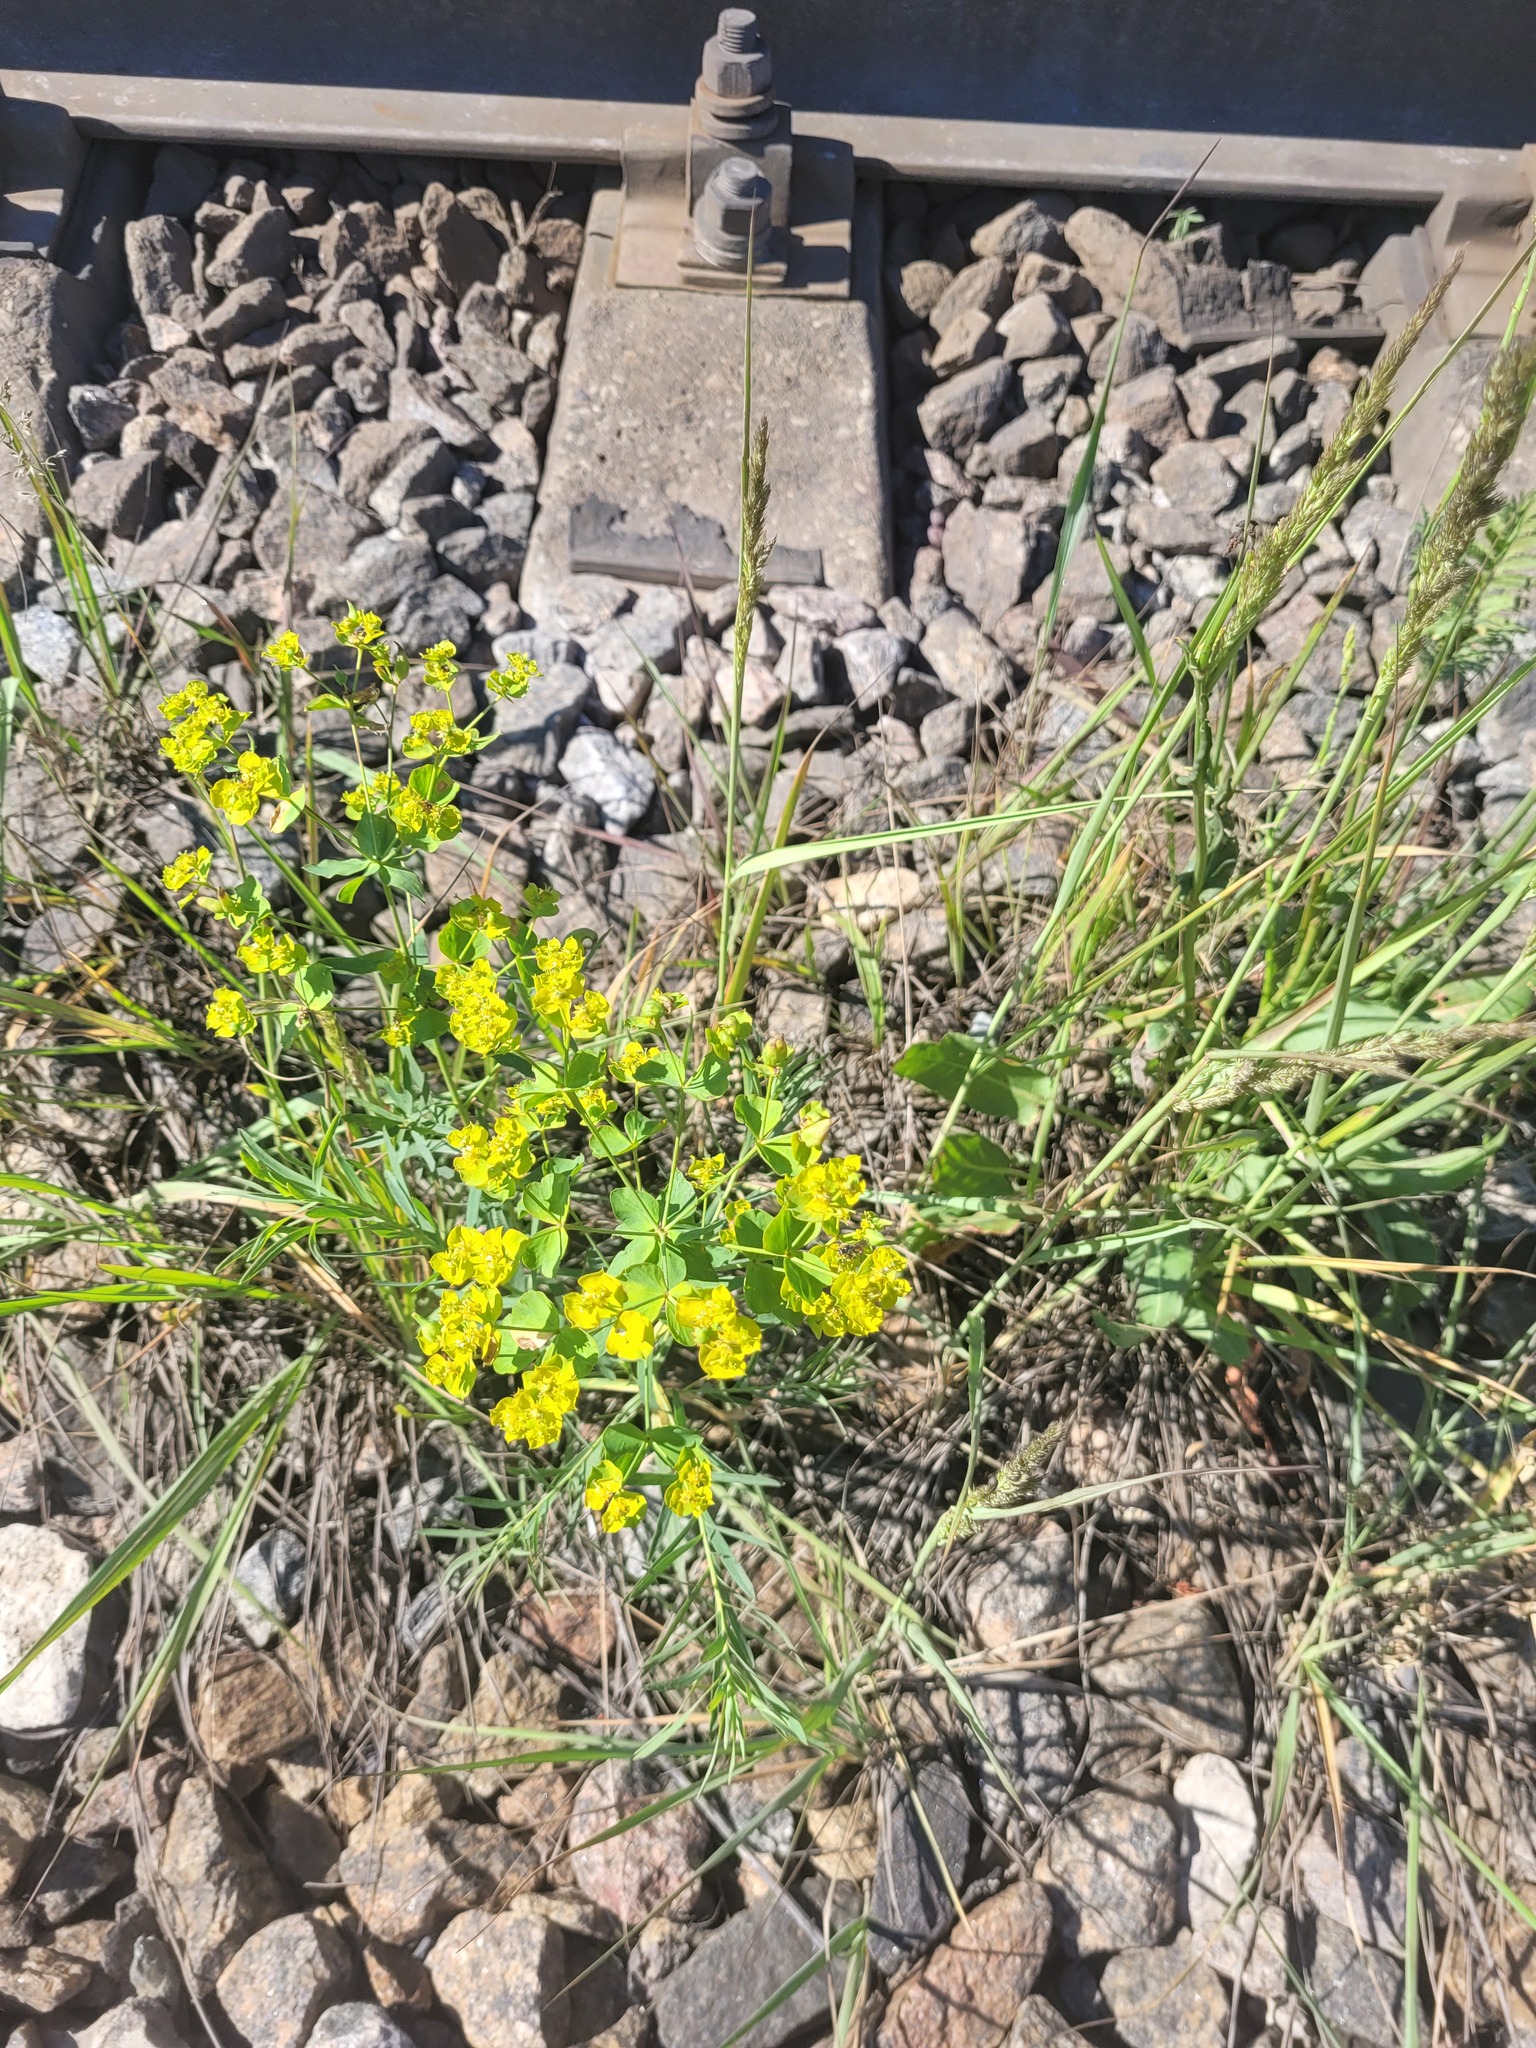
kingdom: Plantae
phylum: Tracheophyta
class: Magnoliopsida
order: Malpighiales
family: Euphorbiaceae
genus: Euphorbia
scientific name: Euphorbia virgata
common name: Leafy spurge
